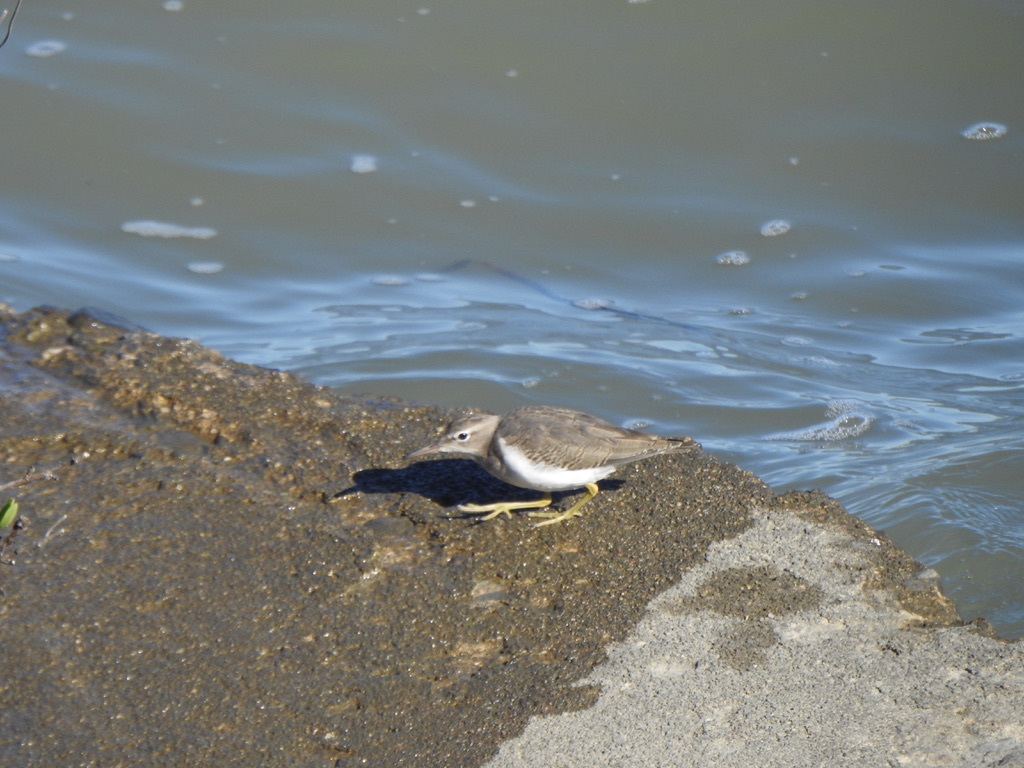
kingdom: Animalia
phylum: Chordata
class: Aves
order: Charadriiformes
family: Scolopacidae
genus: Actitis
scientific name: Actitis macularius
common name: Spotted sandpiper
